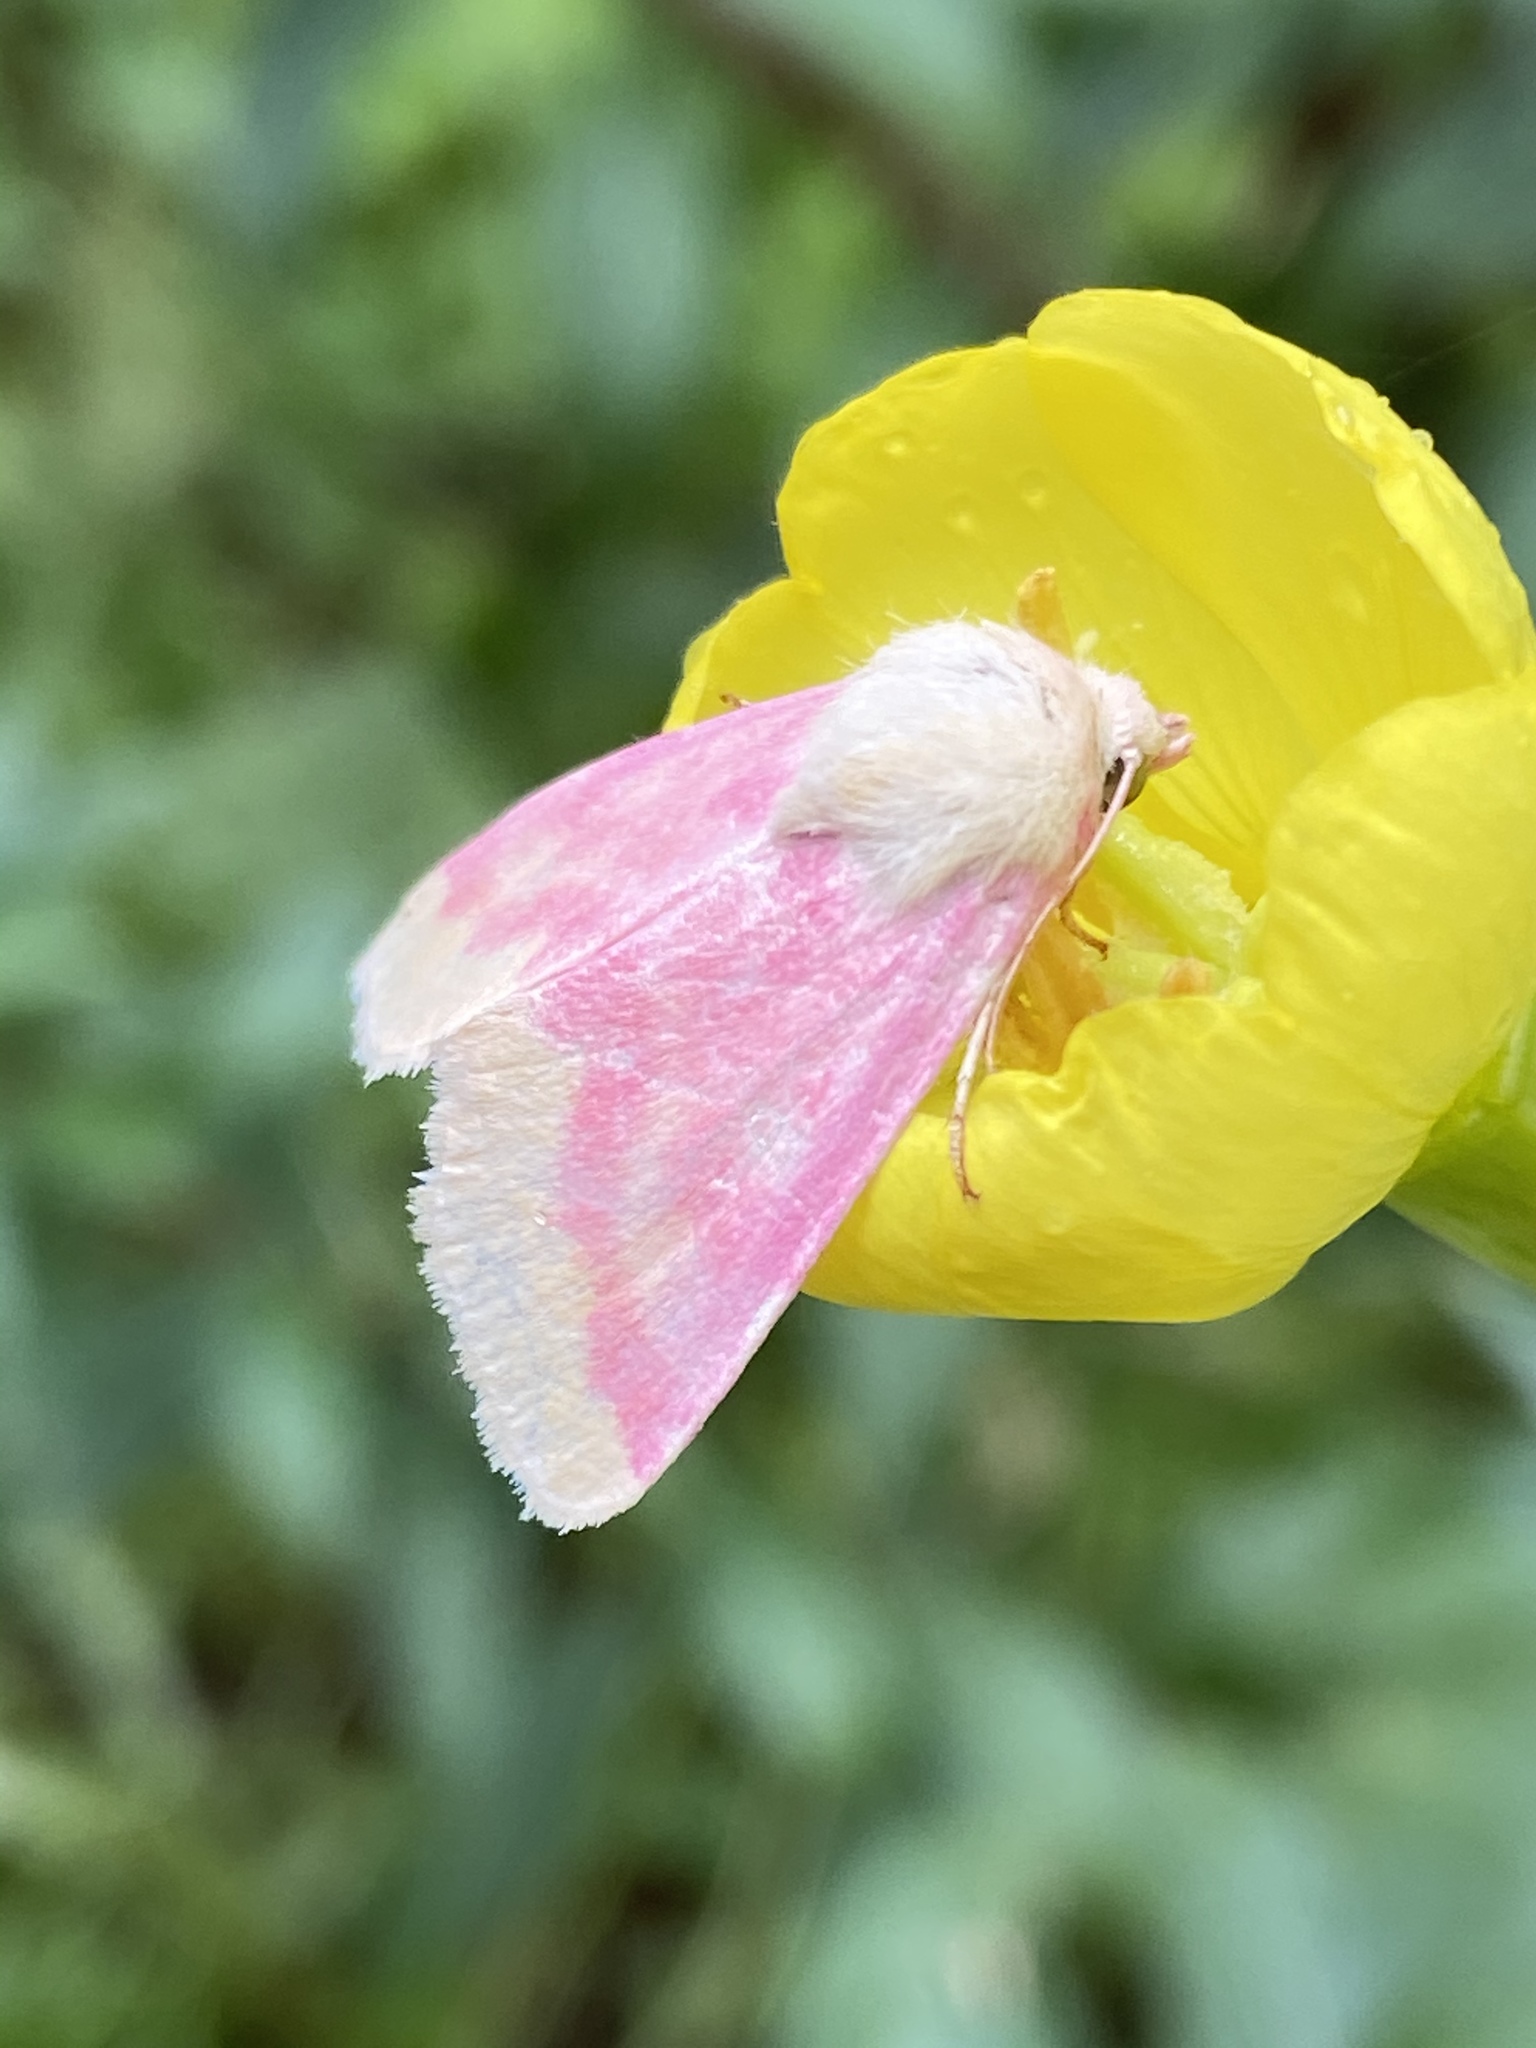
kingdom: Animalia
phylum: Arthropoda
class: Insecta
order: Lepidoptera
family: Noctuidae
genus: Schinia
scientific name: Schinia florida
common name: Primrose moth
